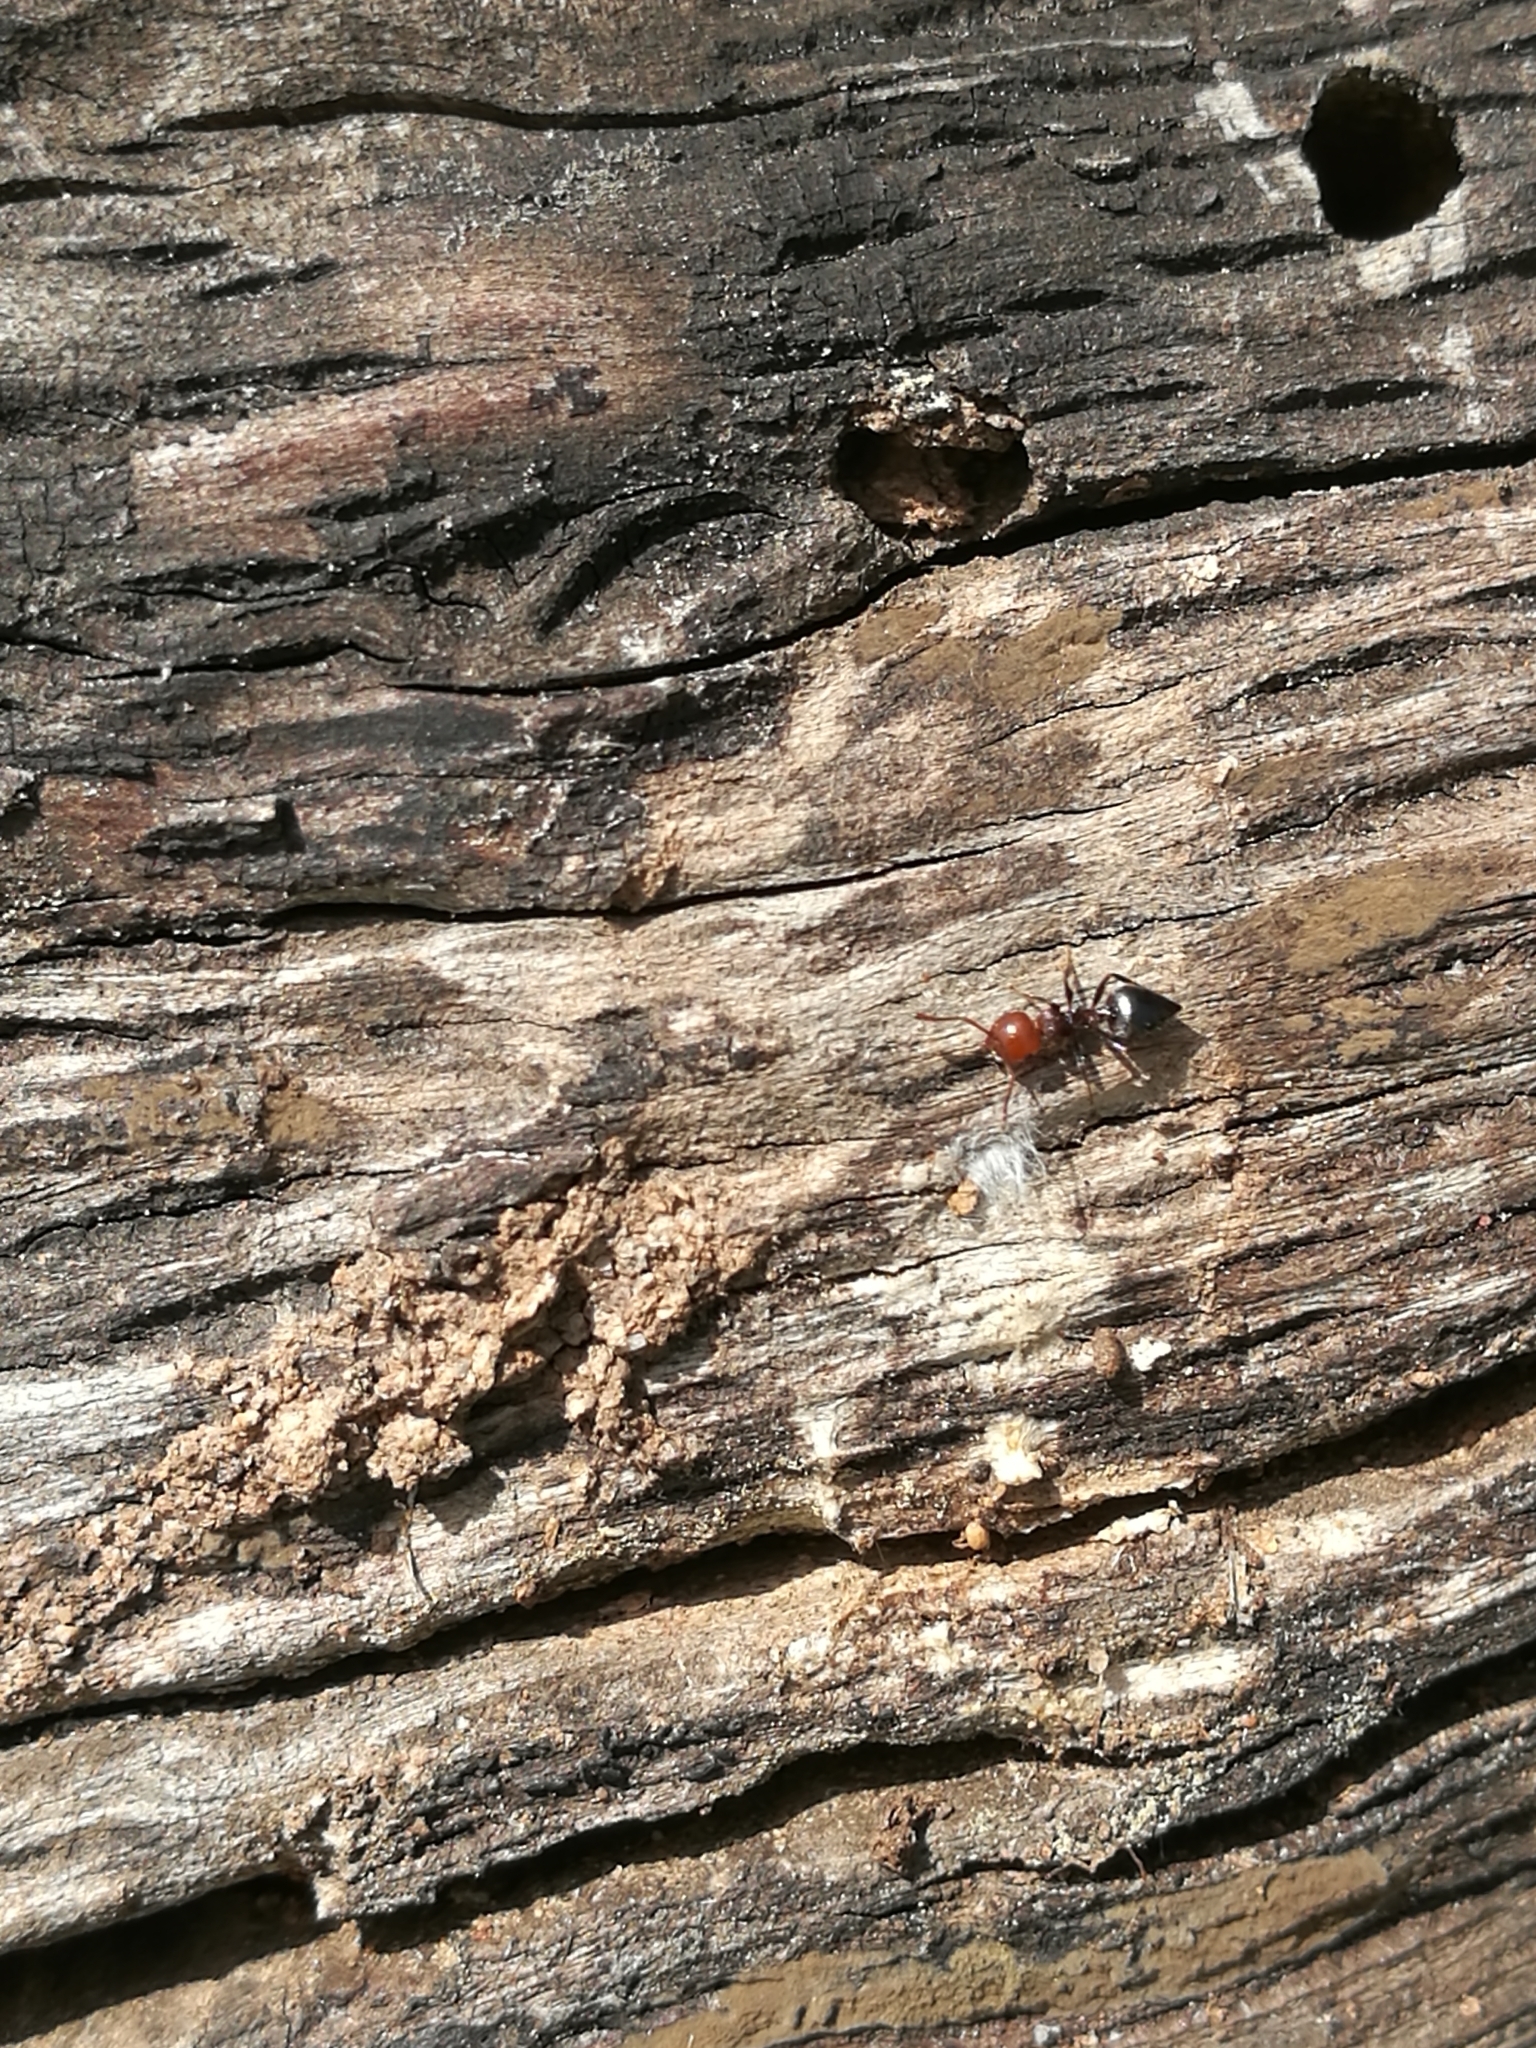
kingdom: Animalia
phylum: Arthropoda
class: Insecta
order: Hymenoptera
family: Formicidae
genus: Crematogaster
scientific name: Crematogaster scutellaris
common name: Fourmi du liège
